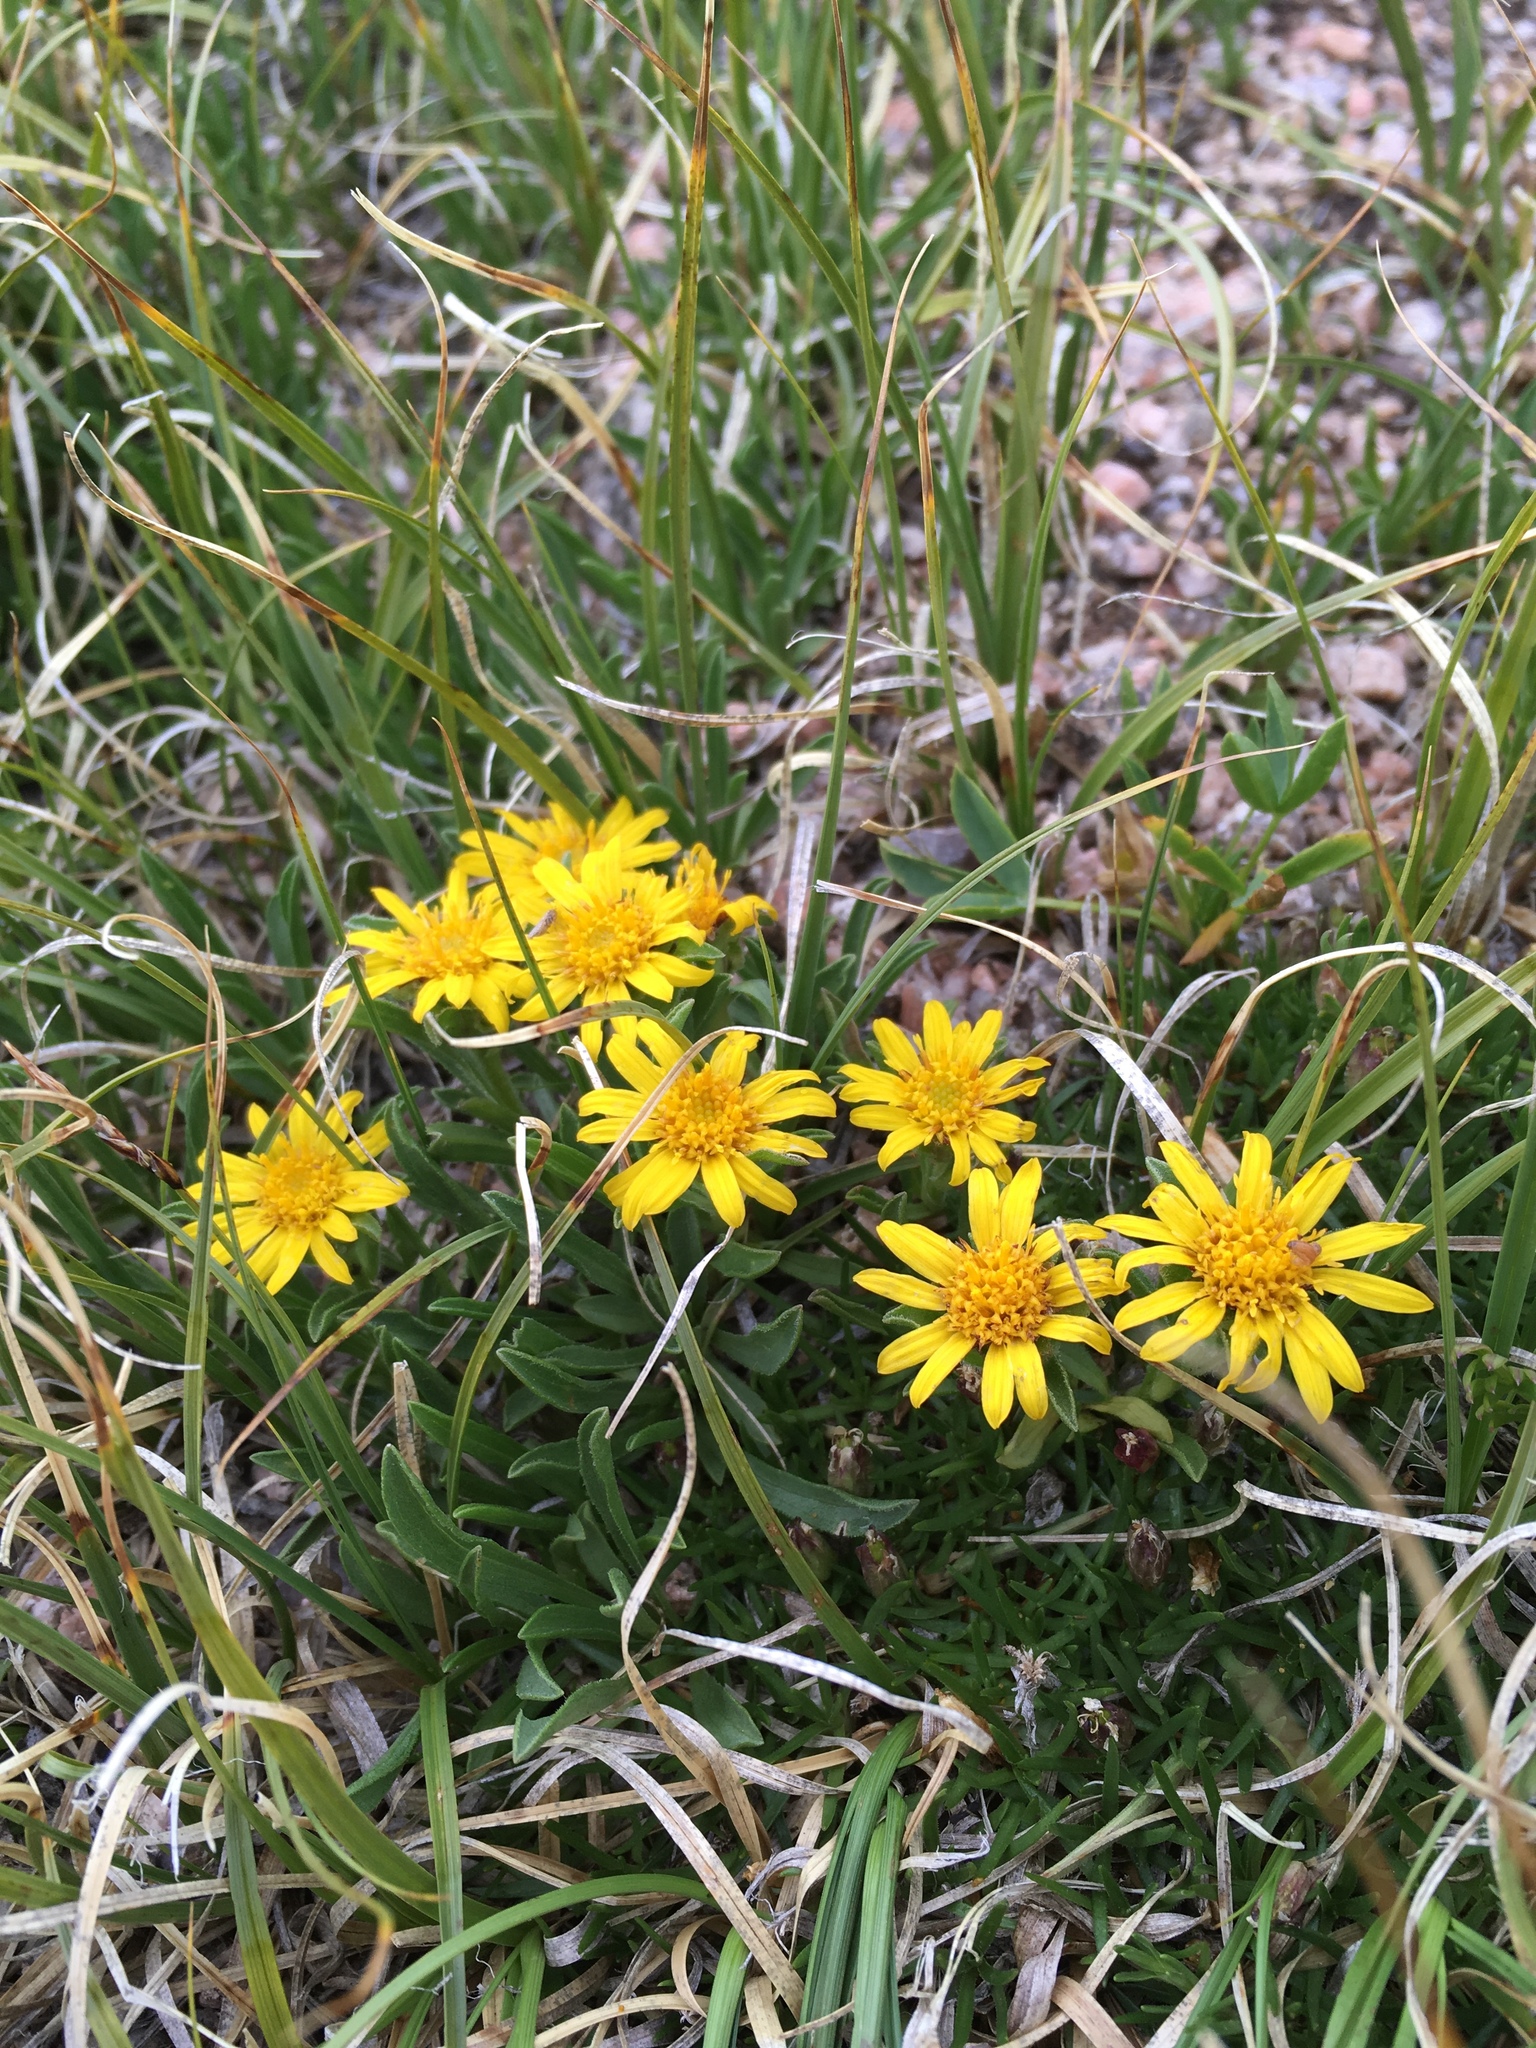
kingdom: Plantae
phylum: Tracheophyta
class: Magnoliopsida
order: Asterales
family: Asteraceae
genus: Tonestus
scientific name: Tonestus pygmaeus
